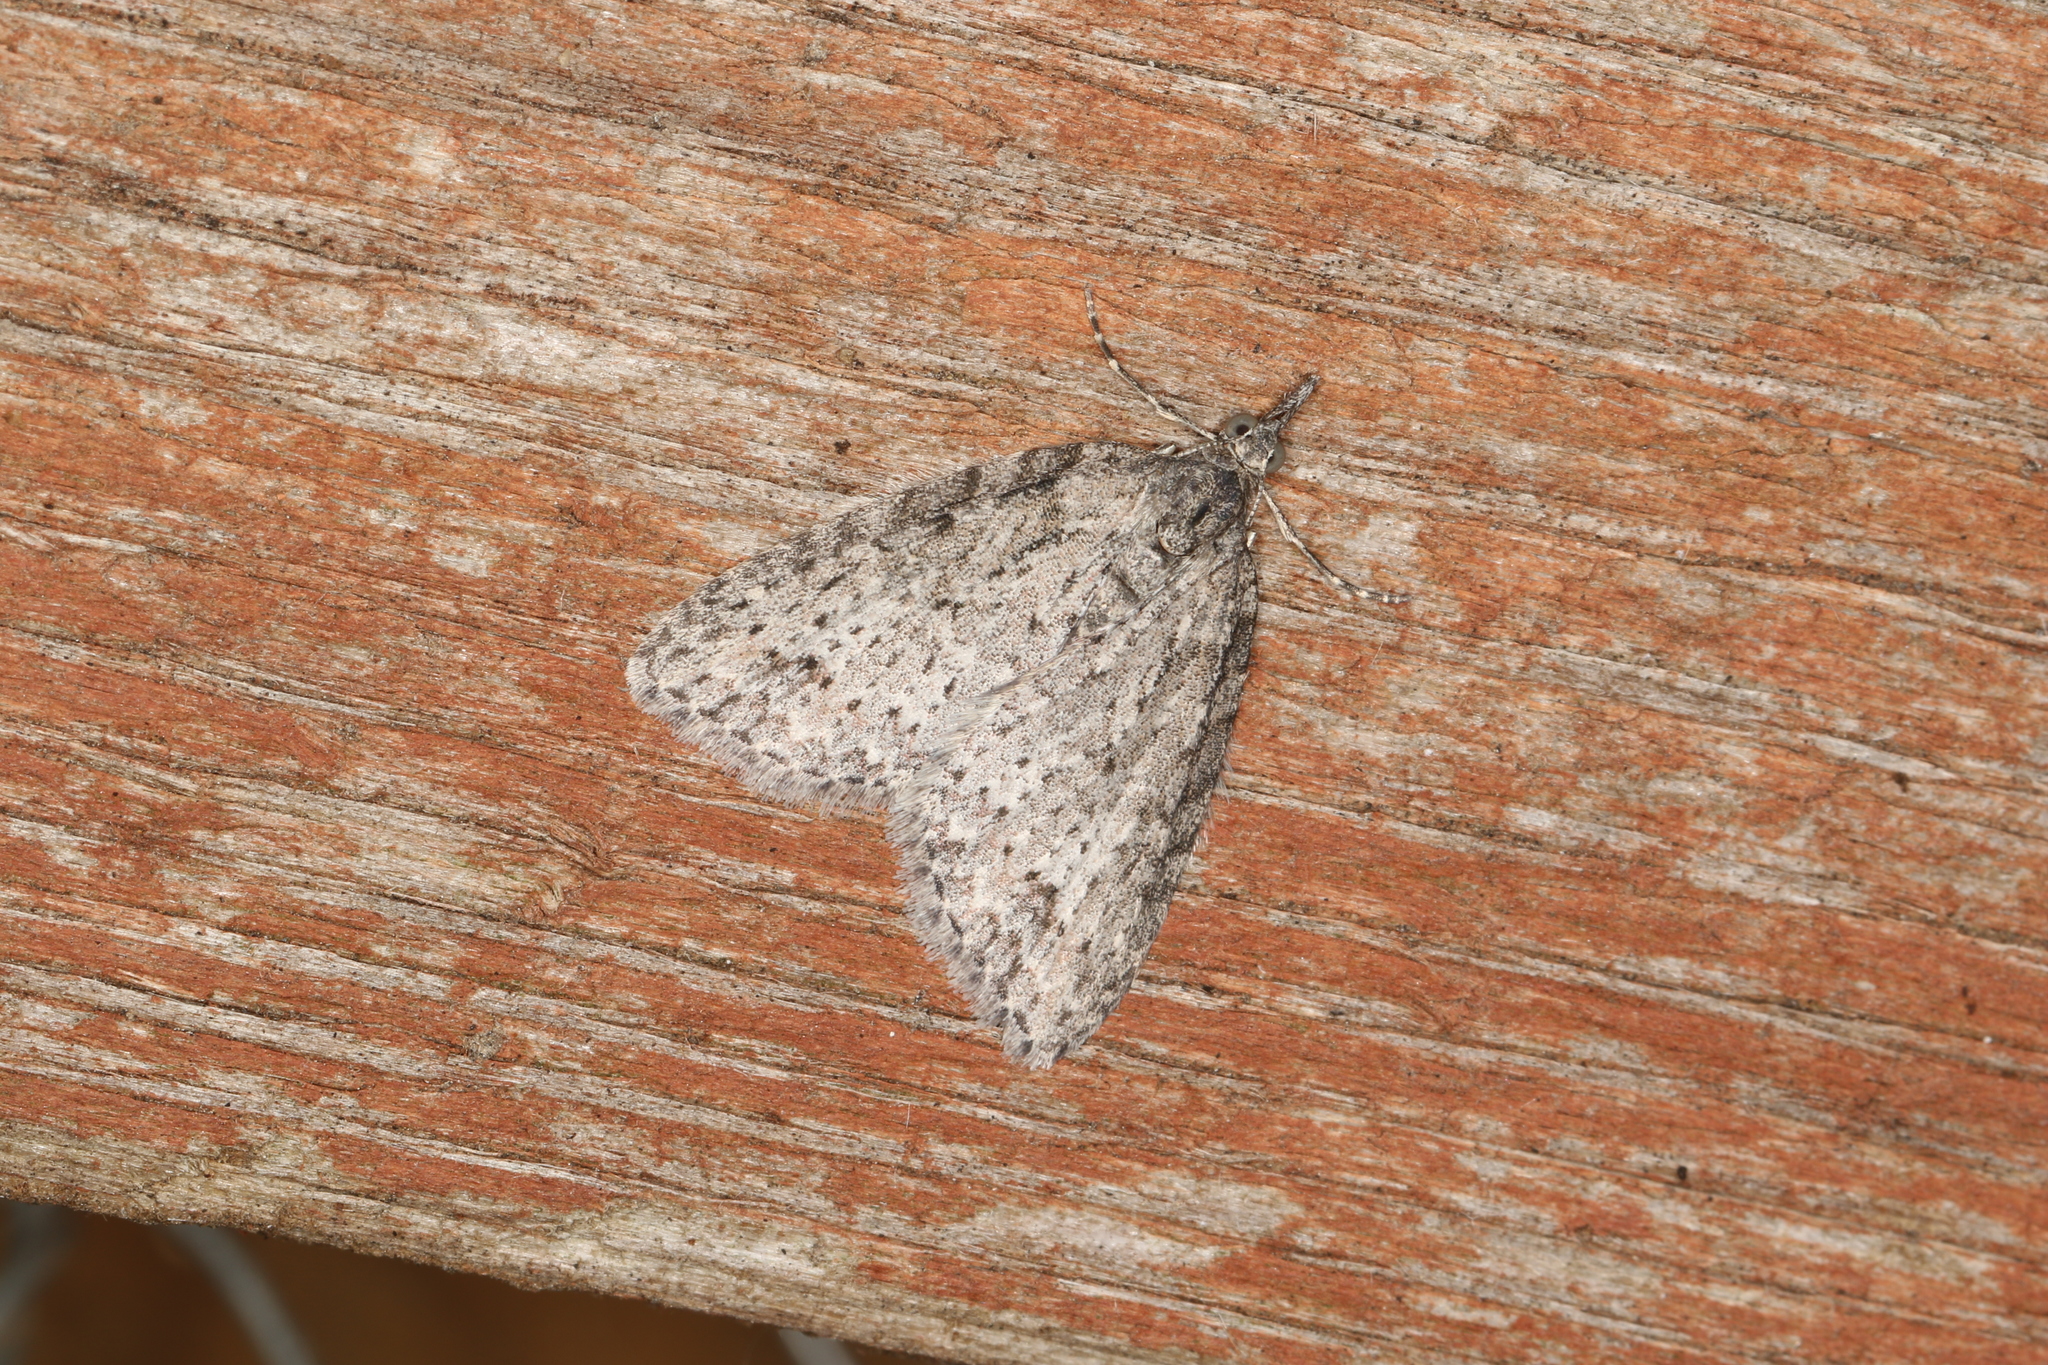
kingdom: Animalia
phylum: Arthropoda
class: Insecta
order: Lepidoptera
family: Geometridae
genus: Microdes
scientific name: Microdes villosata
